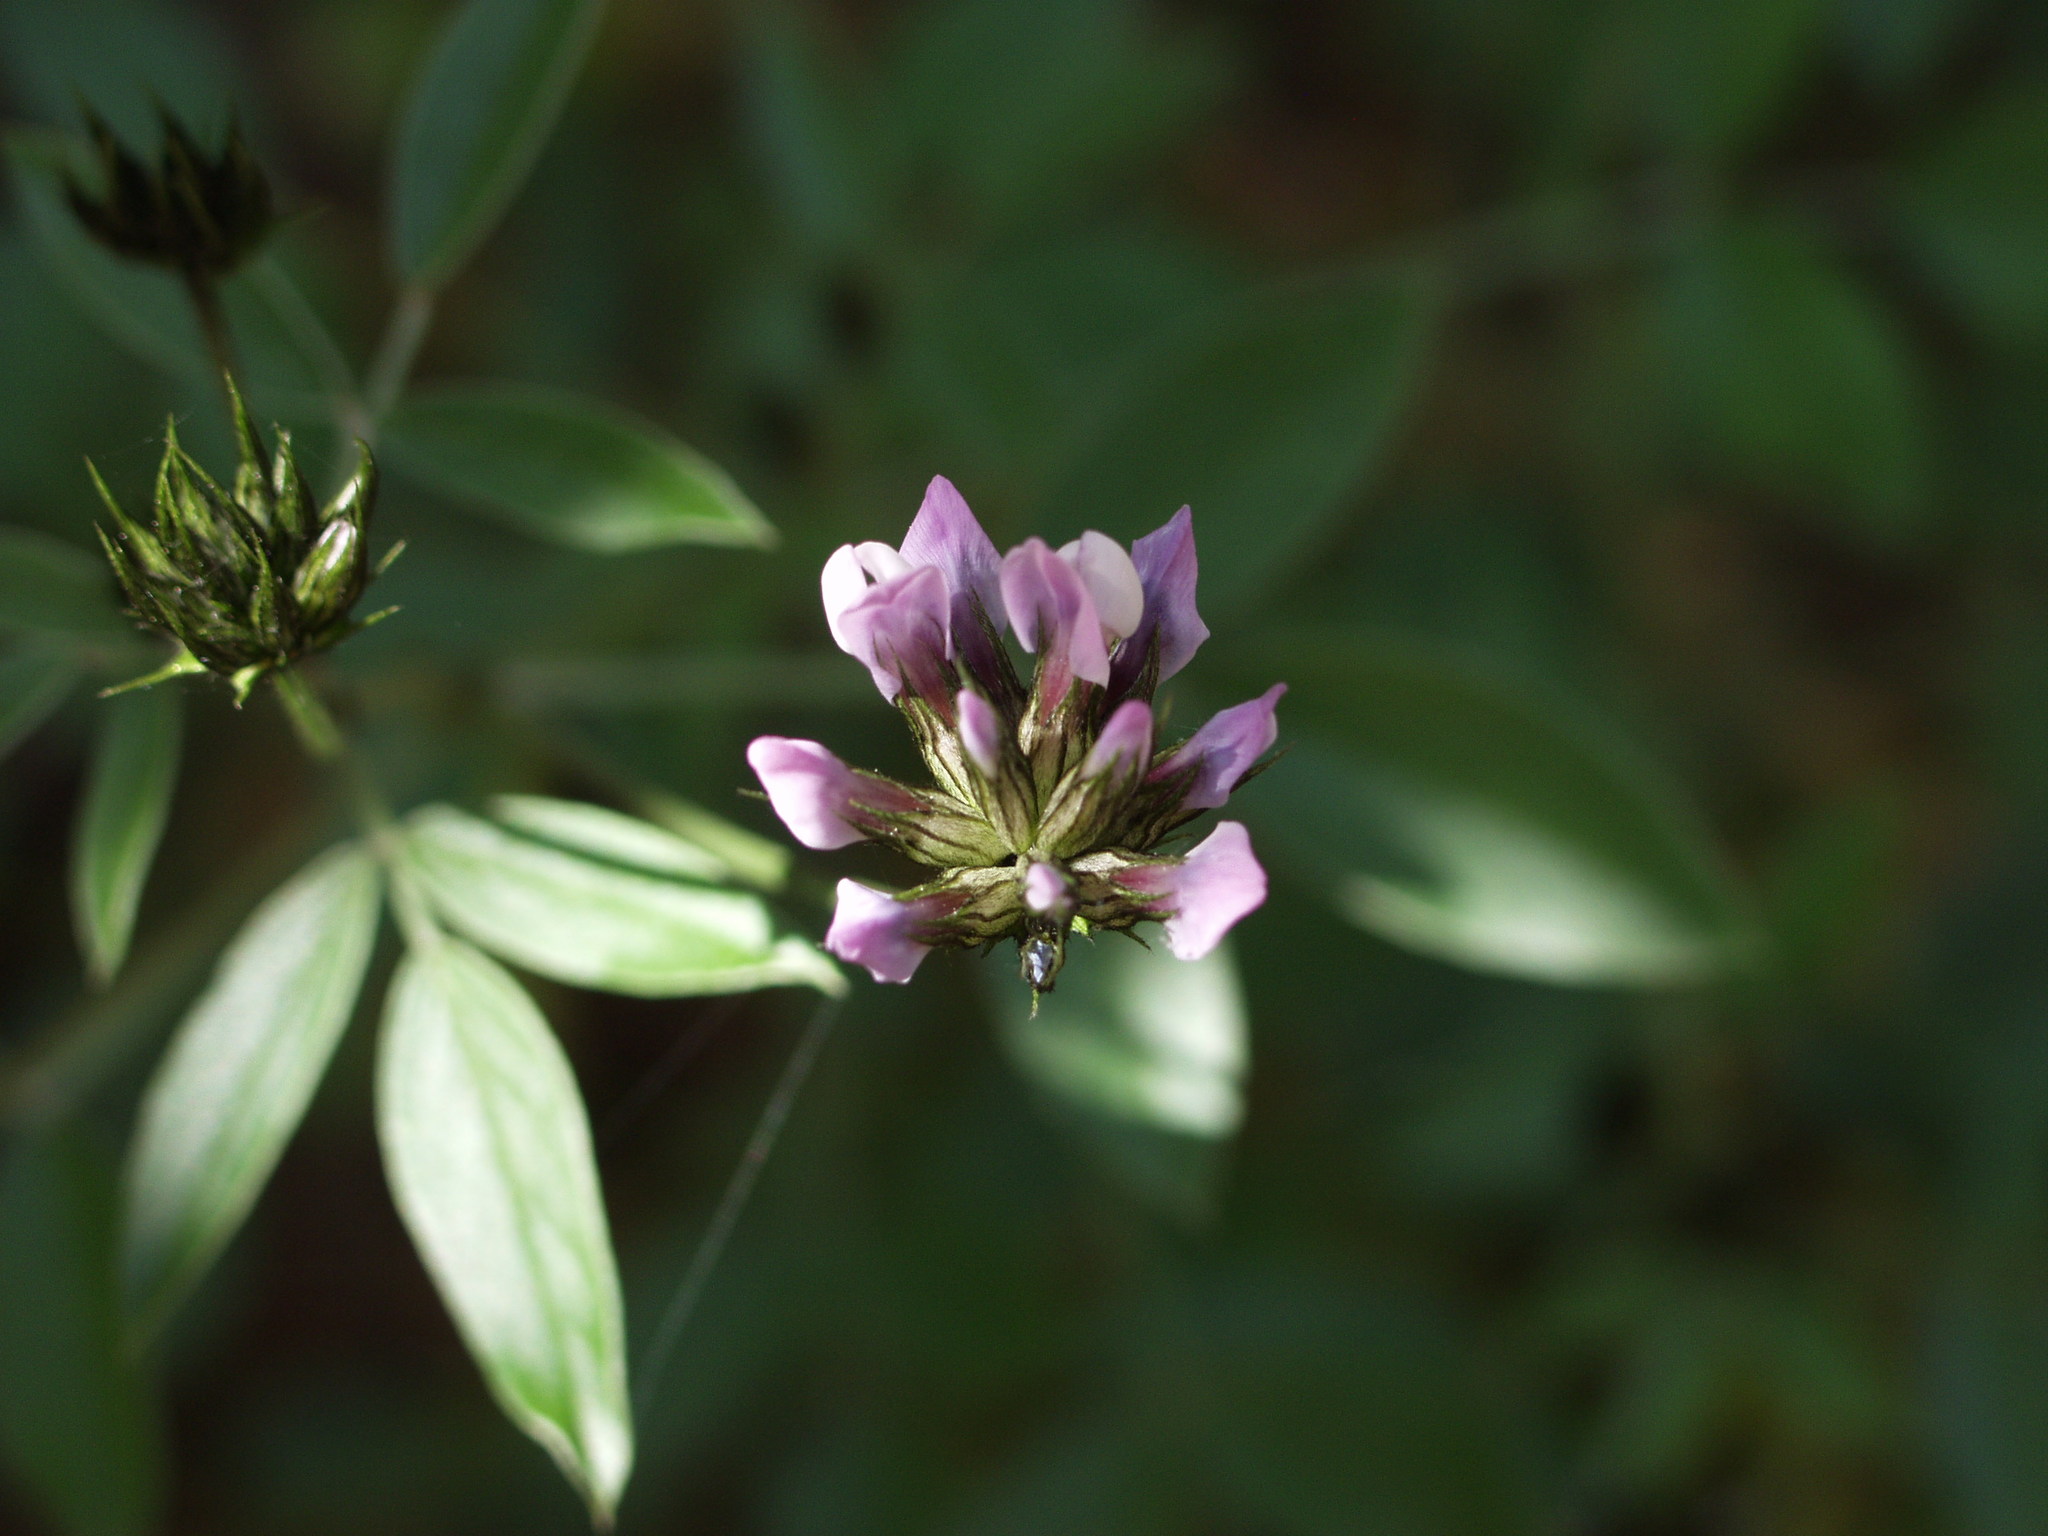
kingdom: Plantae
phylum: Tracheophyta
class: Magnoliopsida
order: Fabales
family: Fabaceae
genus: Bituminaria
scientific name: Bituminaria bituminosa
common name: Arabian pea
